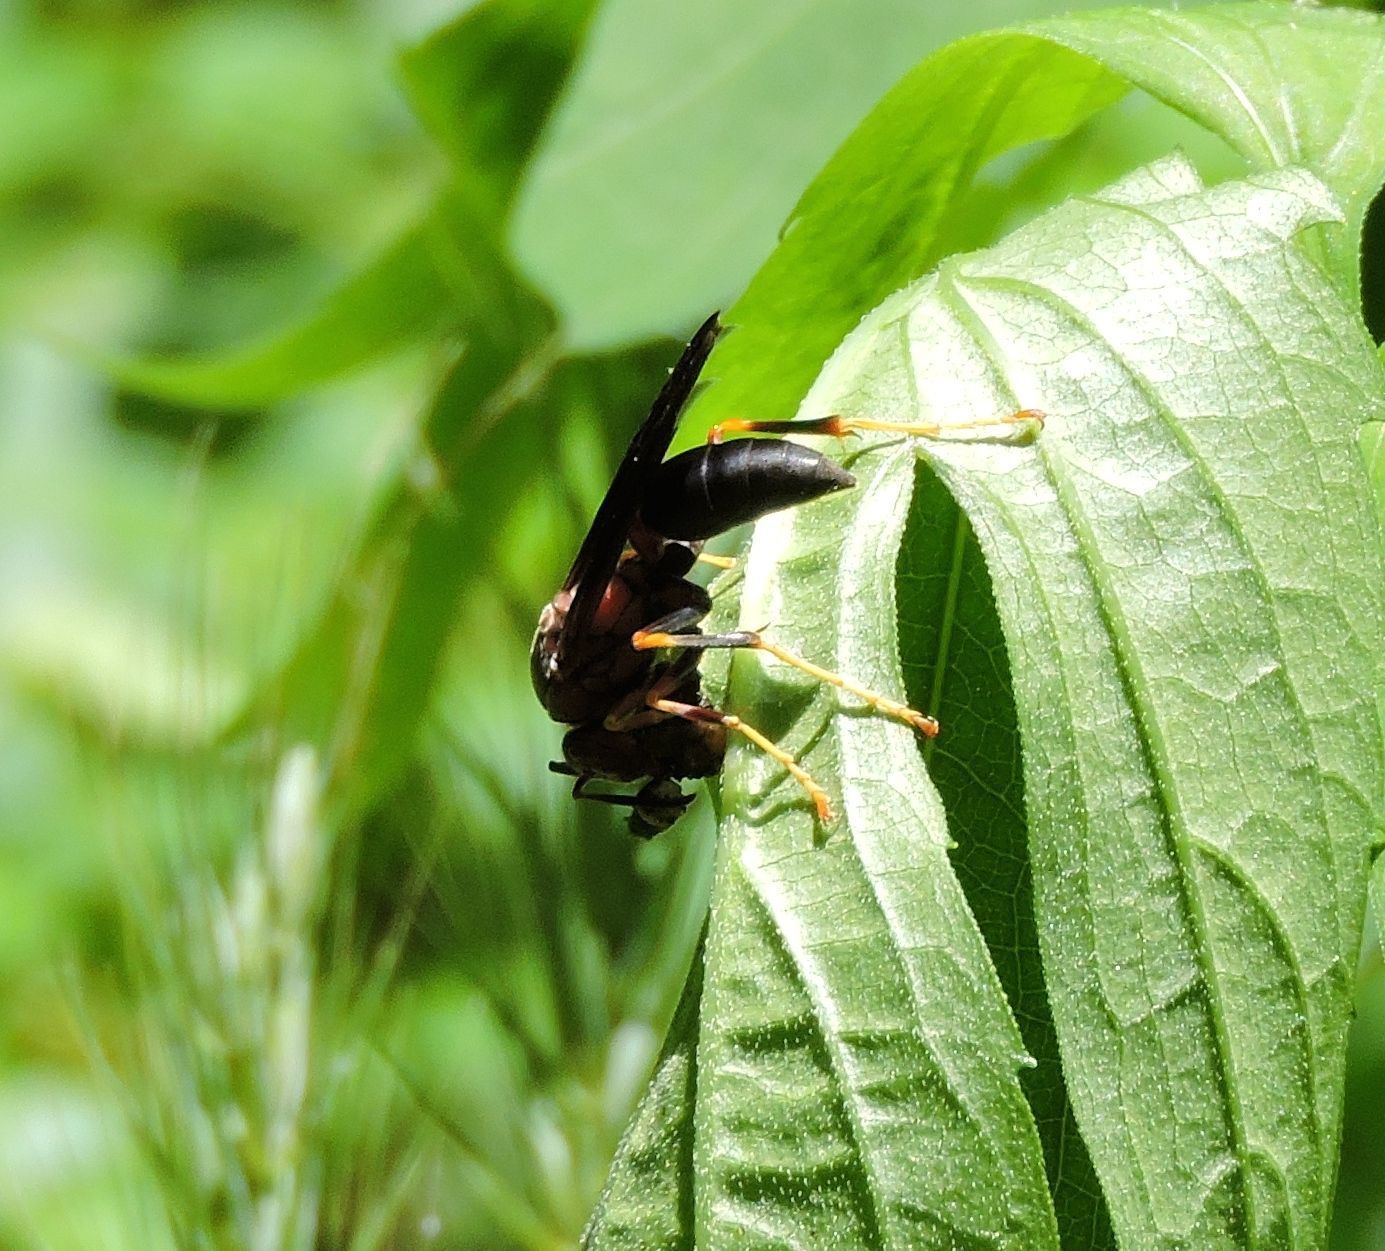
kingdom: Animalia
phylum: Arthropoda
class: Insecta
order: Hymenoptera
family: Eumenidae
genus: Polistes
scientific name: Polistes metricus
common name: Metric paper wasp
